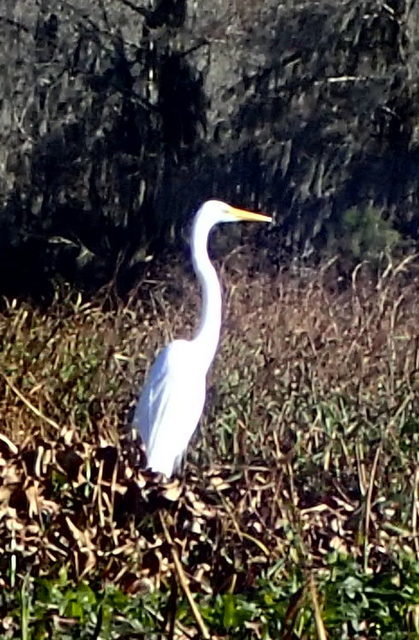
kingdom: Animalia
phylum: Chordata
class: Aves
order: Pelecaniformes
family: Ardeidae
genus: Ardea
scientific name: Ardea alba
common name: Great egret
